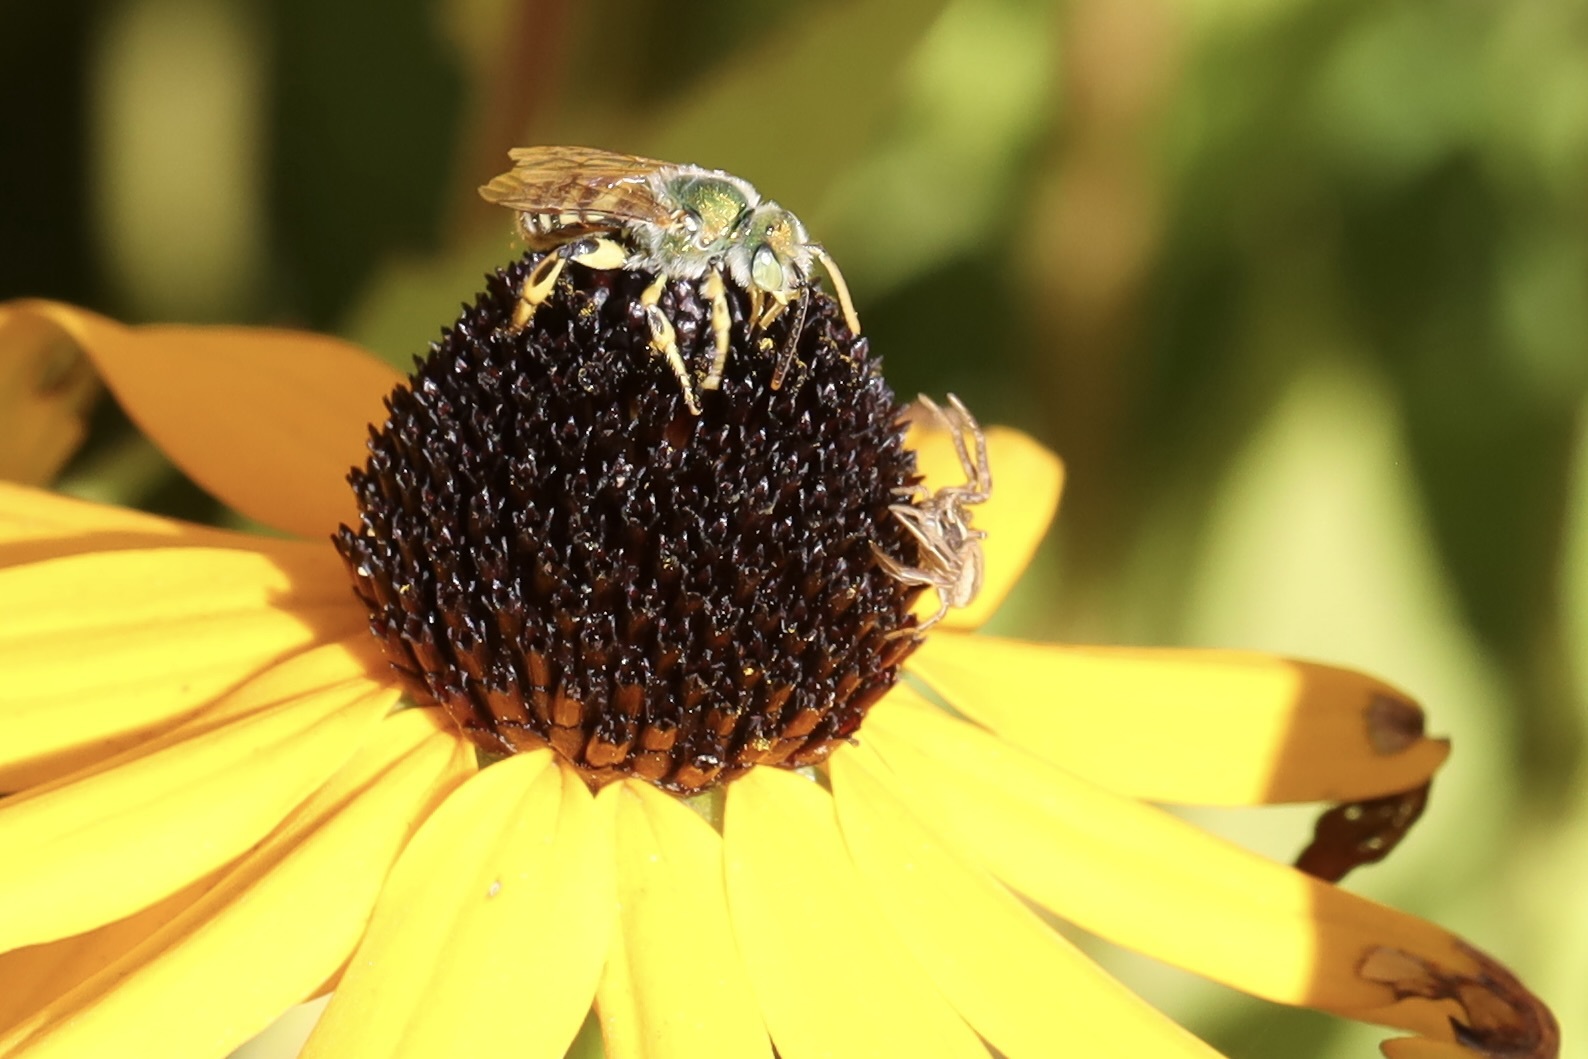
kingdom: Animalia
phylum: Arthropoda
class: Arachnida
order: Araneae
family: Thomisidae
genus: Xysticus
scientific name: Xysticus cristatus
